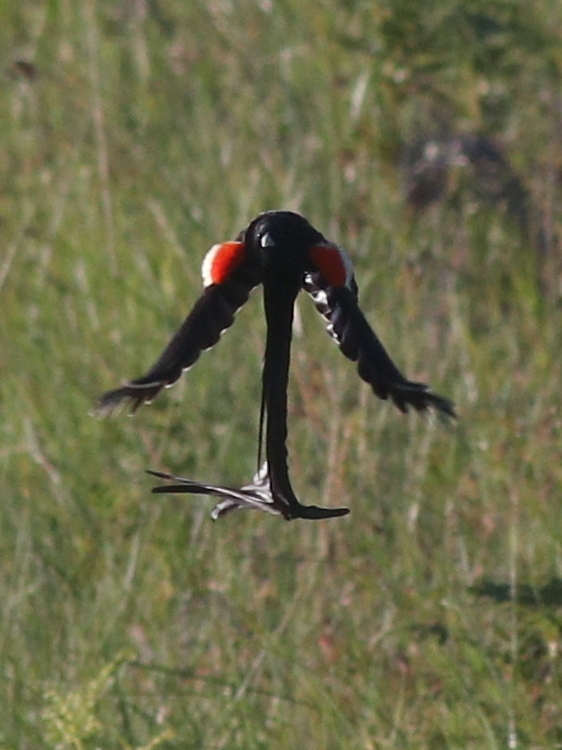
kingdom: Animalia
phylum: Chordata
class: Aves
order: Passeriformes
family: Ploceidae
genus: Euplectes
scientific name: Euplectes progne
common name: Long-tailed widowbird
